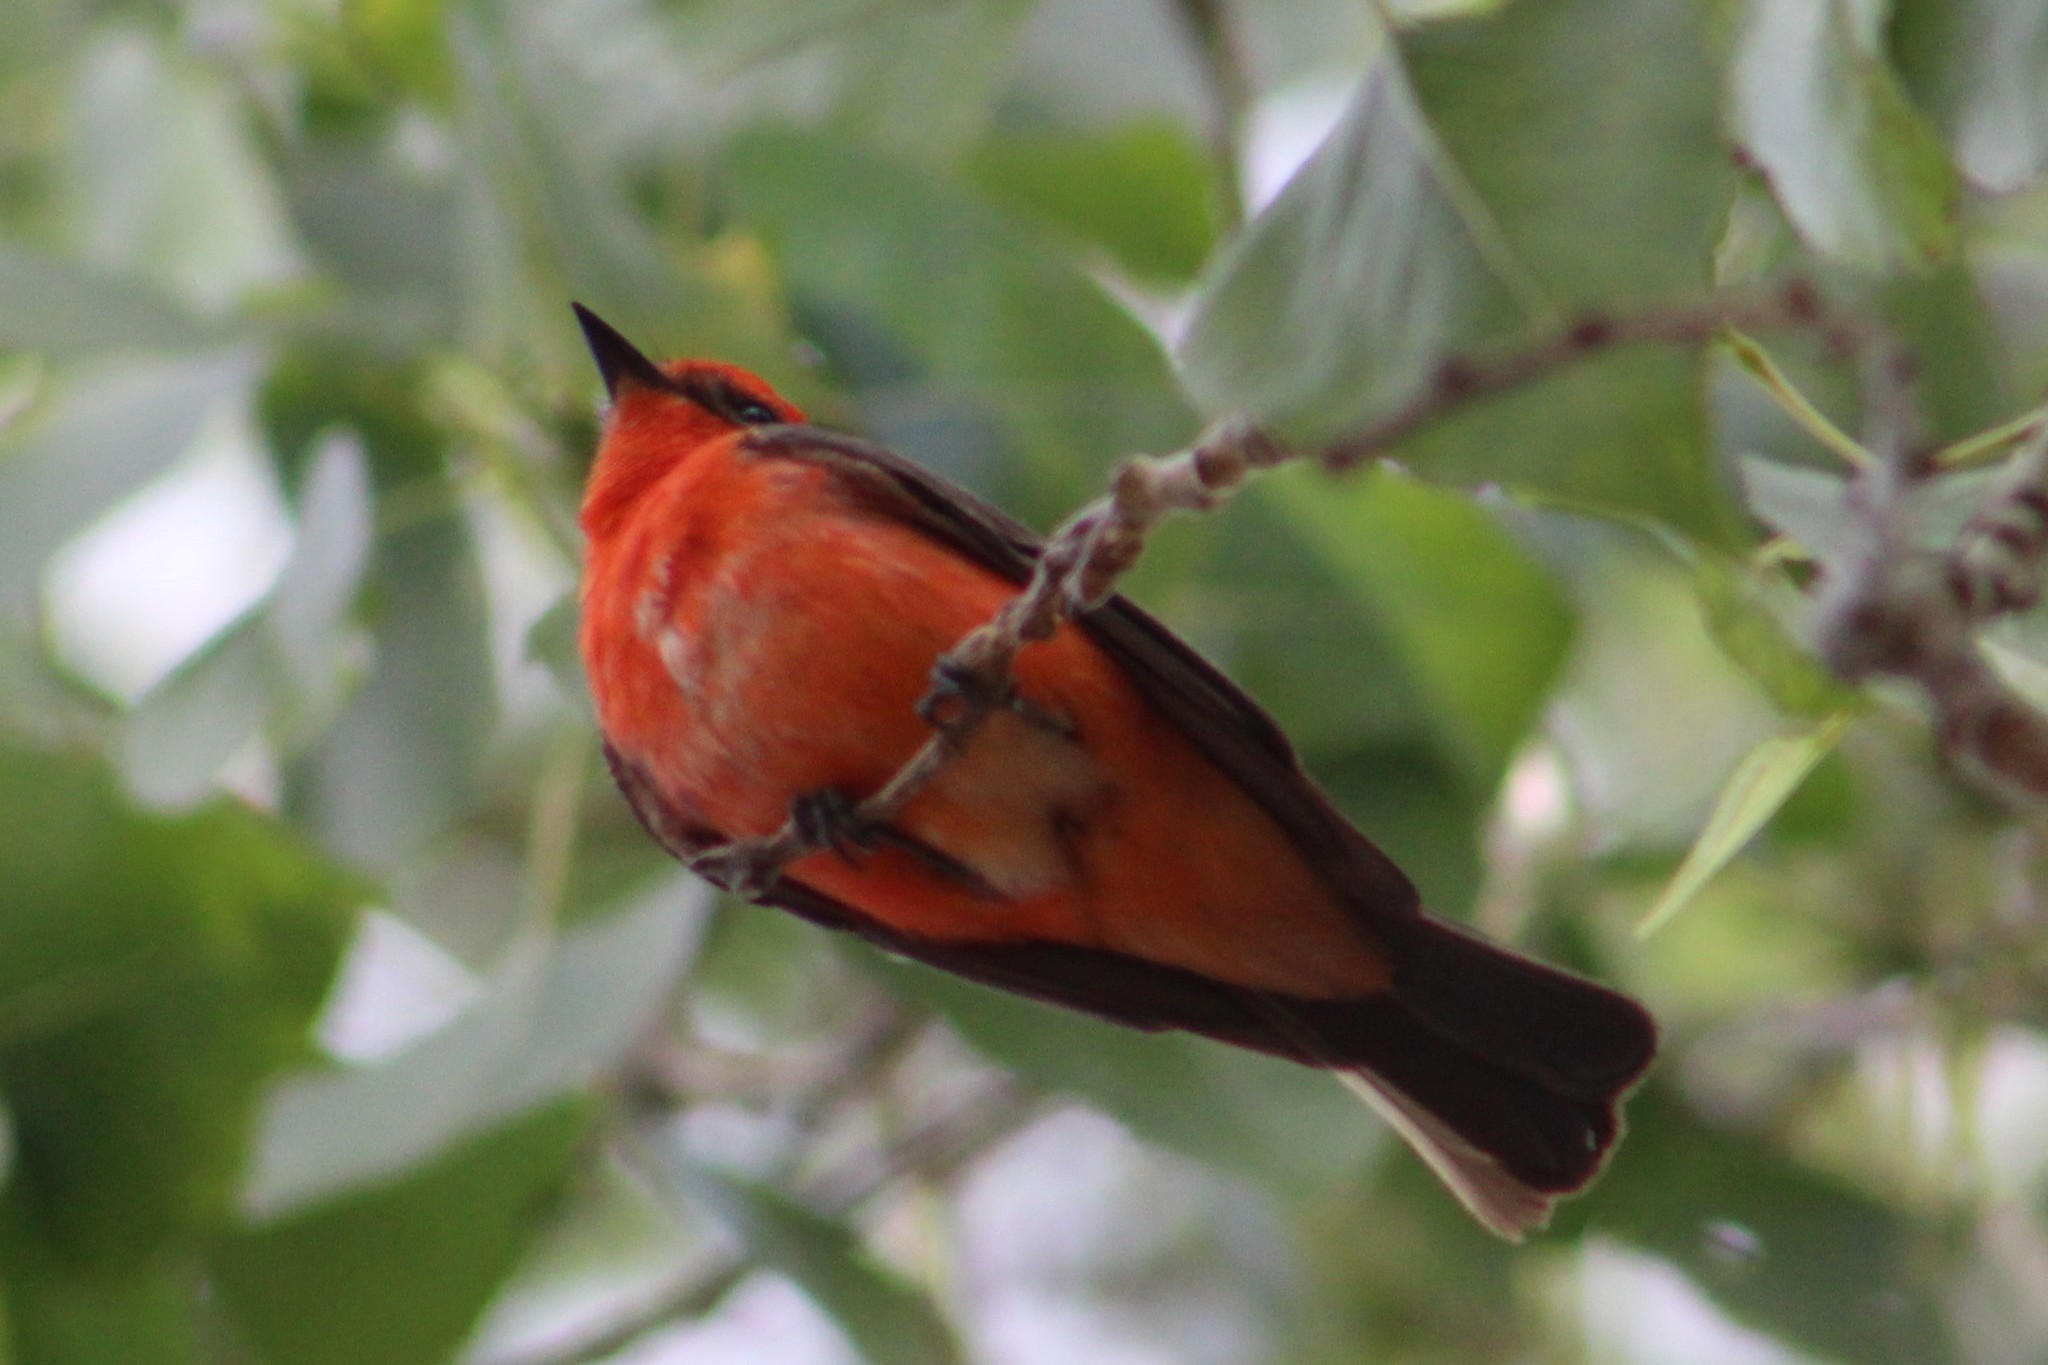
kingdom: Animalia
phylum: Chordata
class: Aves
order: Passeriformes
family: Tyrannidae
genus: Pyrocephalus
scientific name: Pyrocephalus rubinus
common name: Vermilion flycatcher
